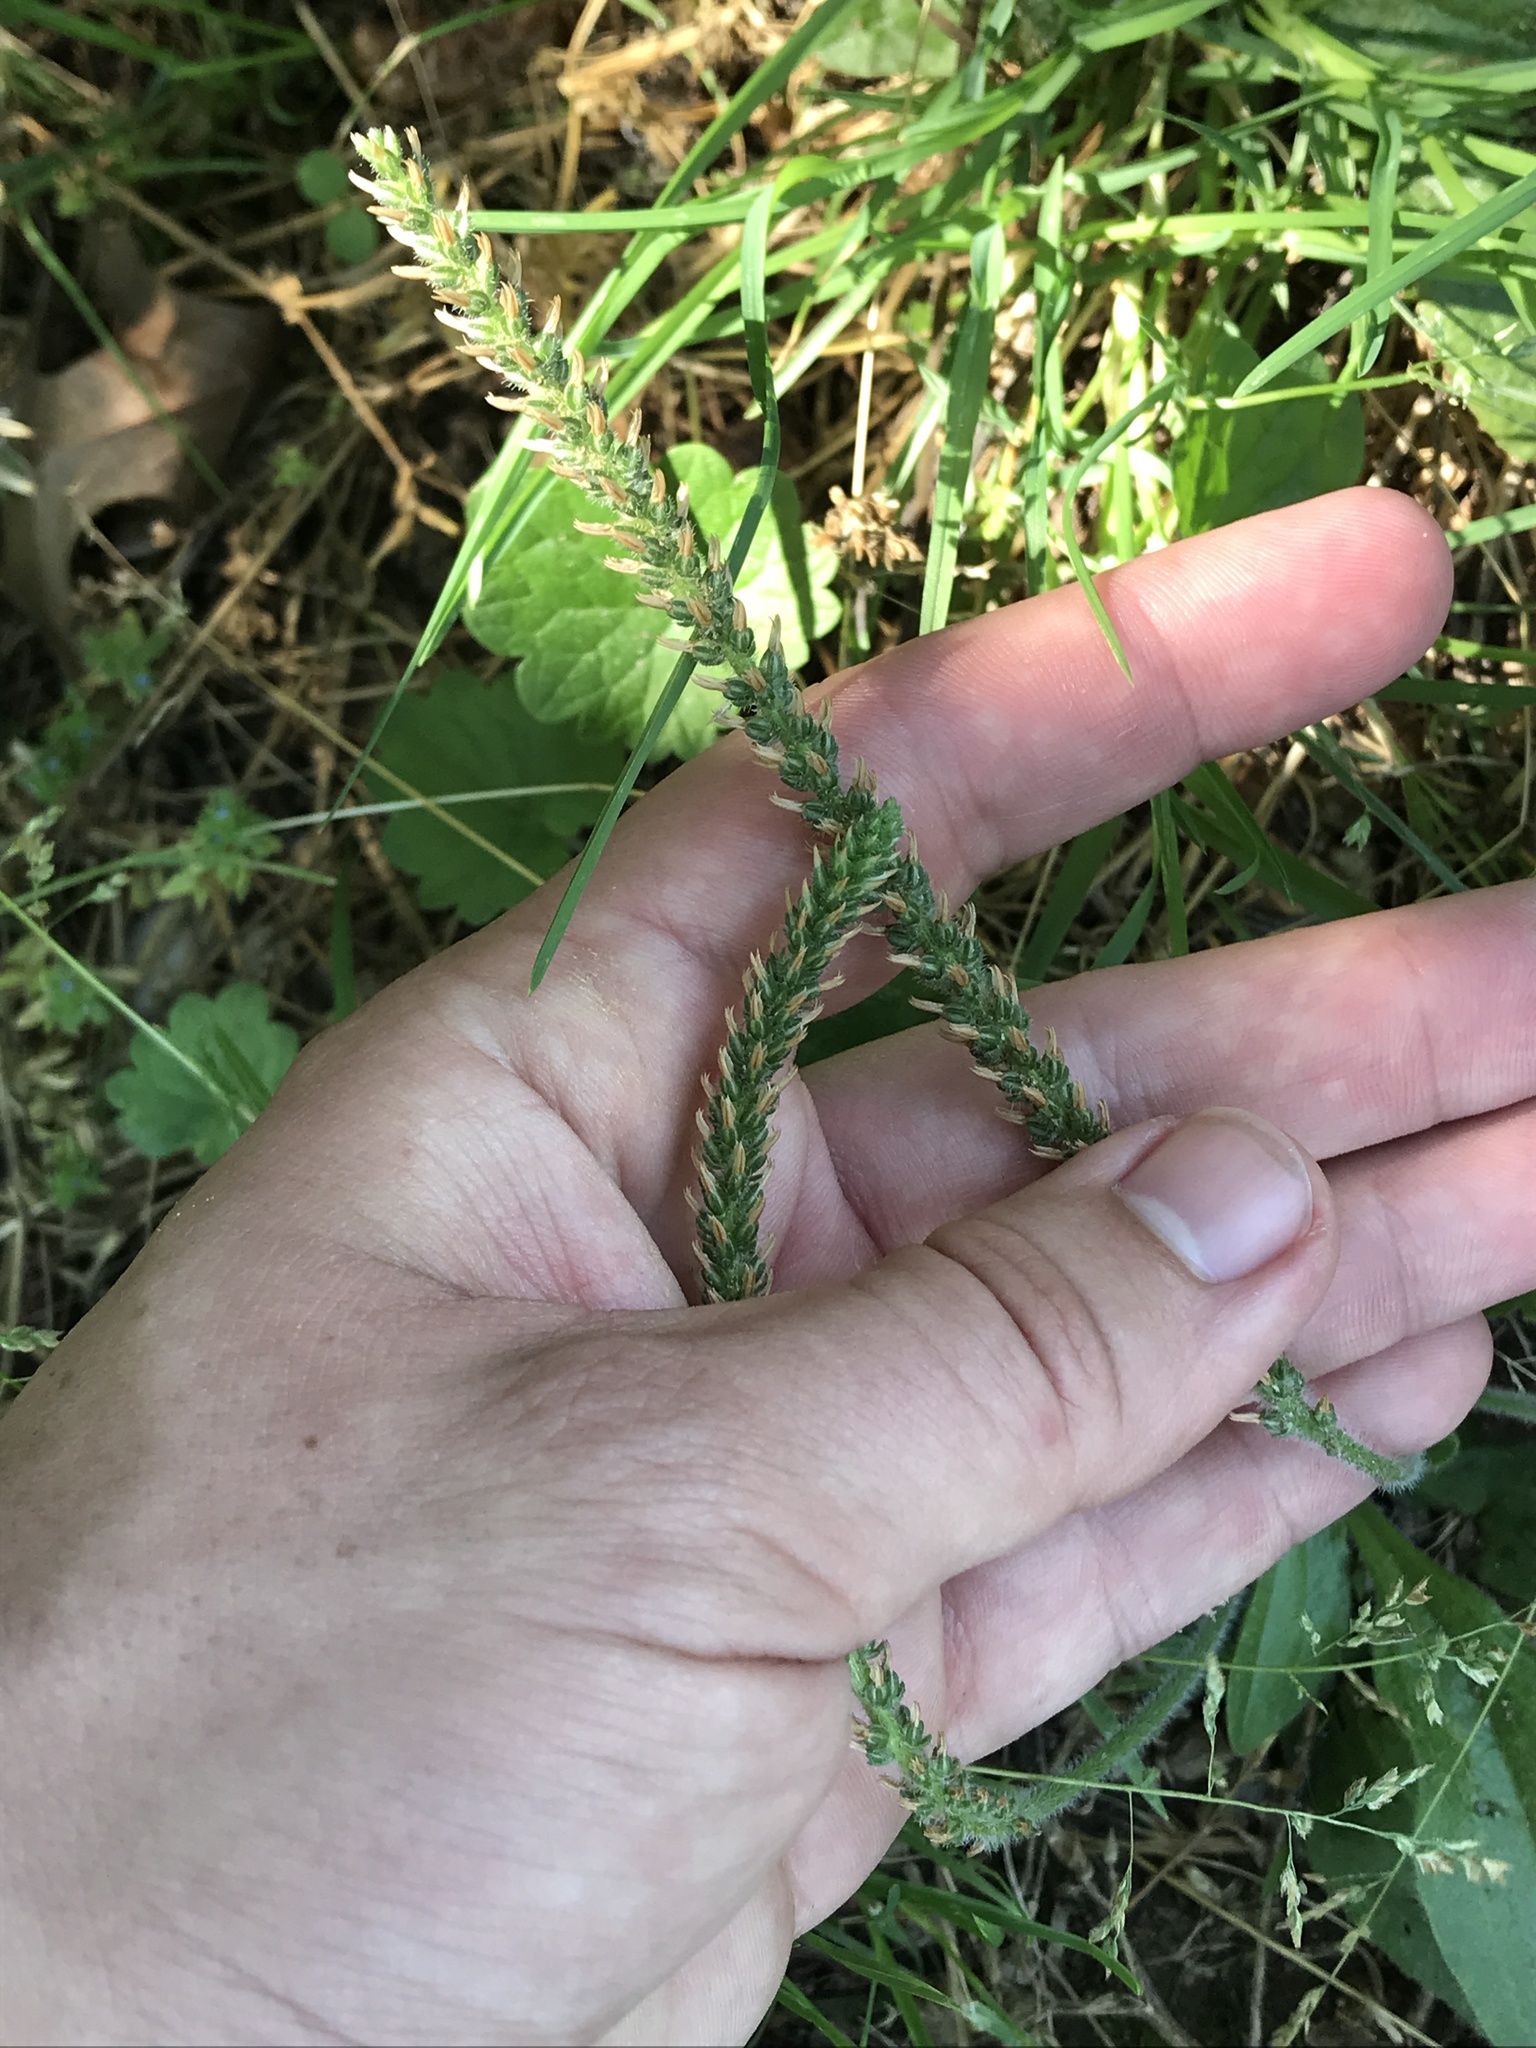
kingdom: Plantae
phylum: Tracheophyta
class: Magnoliopsida
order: Lamiales
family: Plantaginaceae
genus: Plantago
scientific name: Plantago virginica
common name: Hoary plantain
